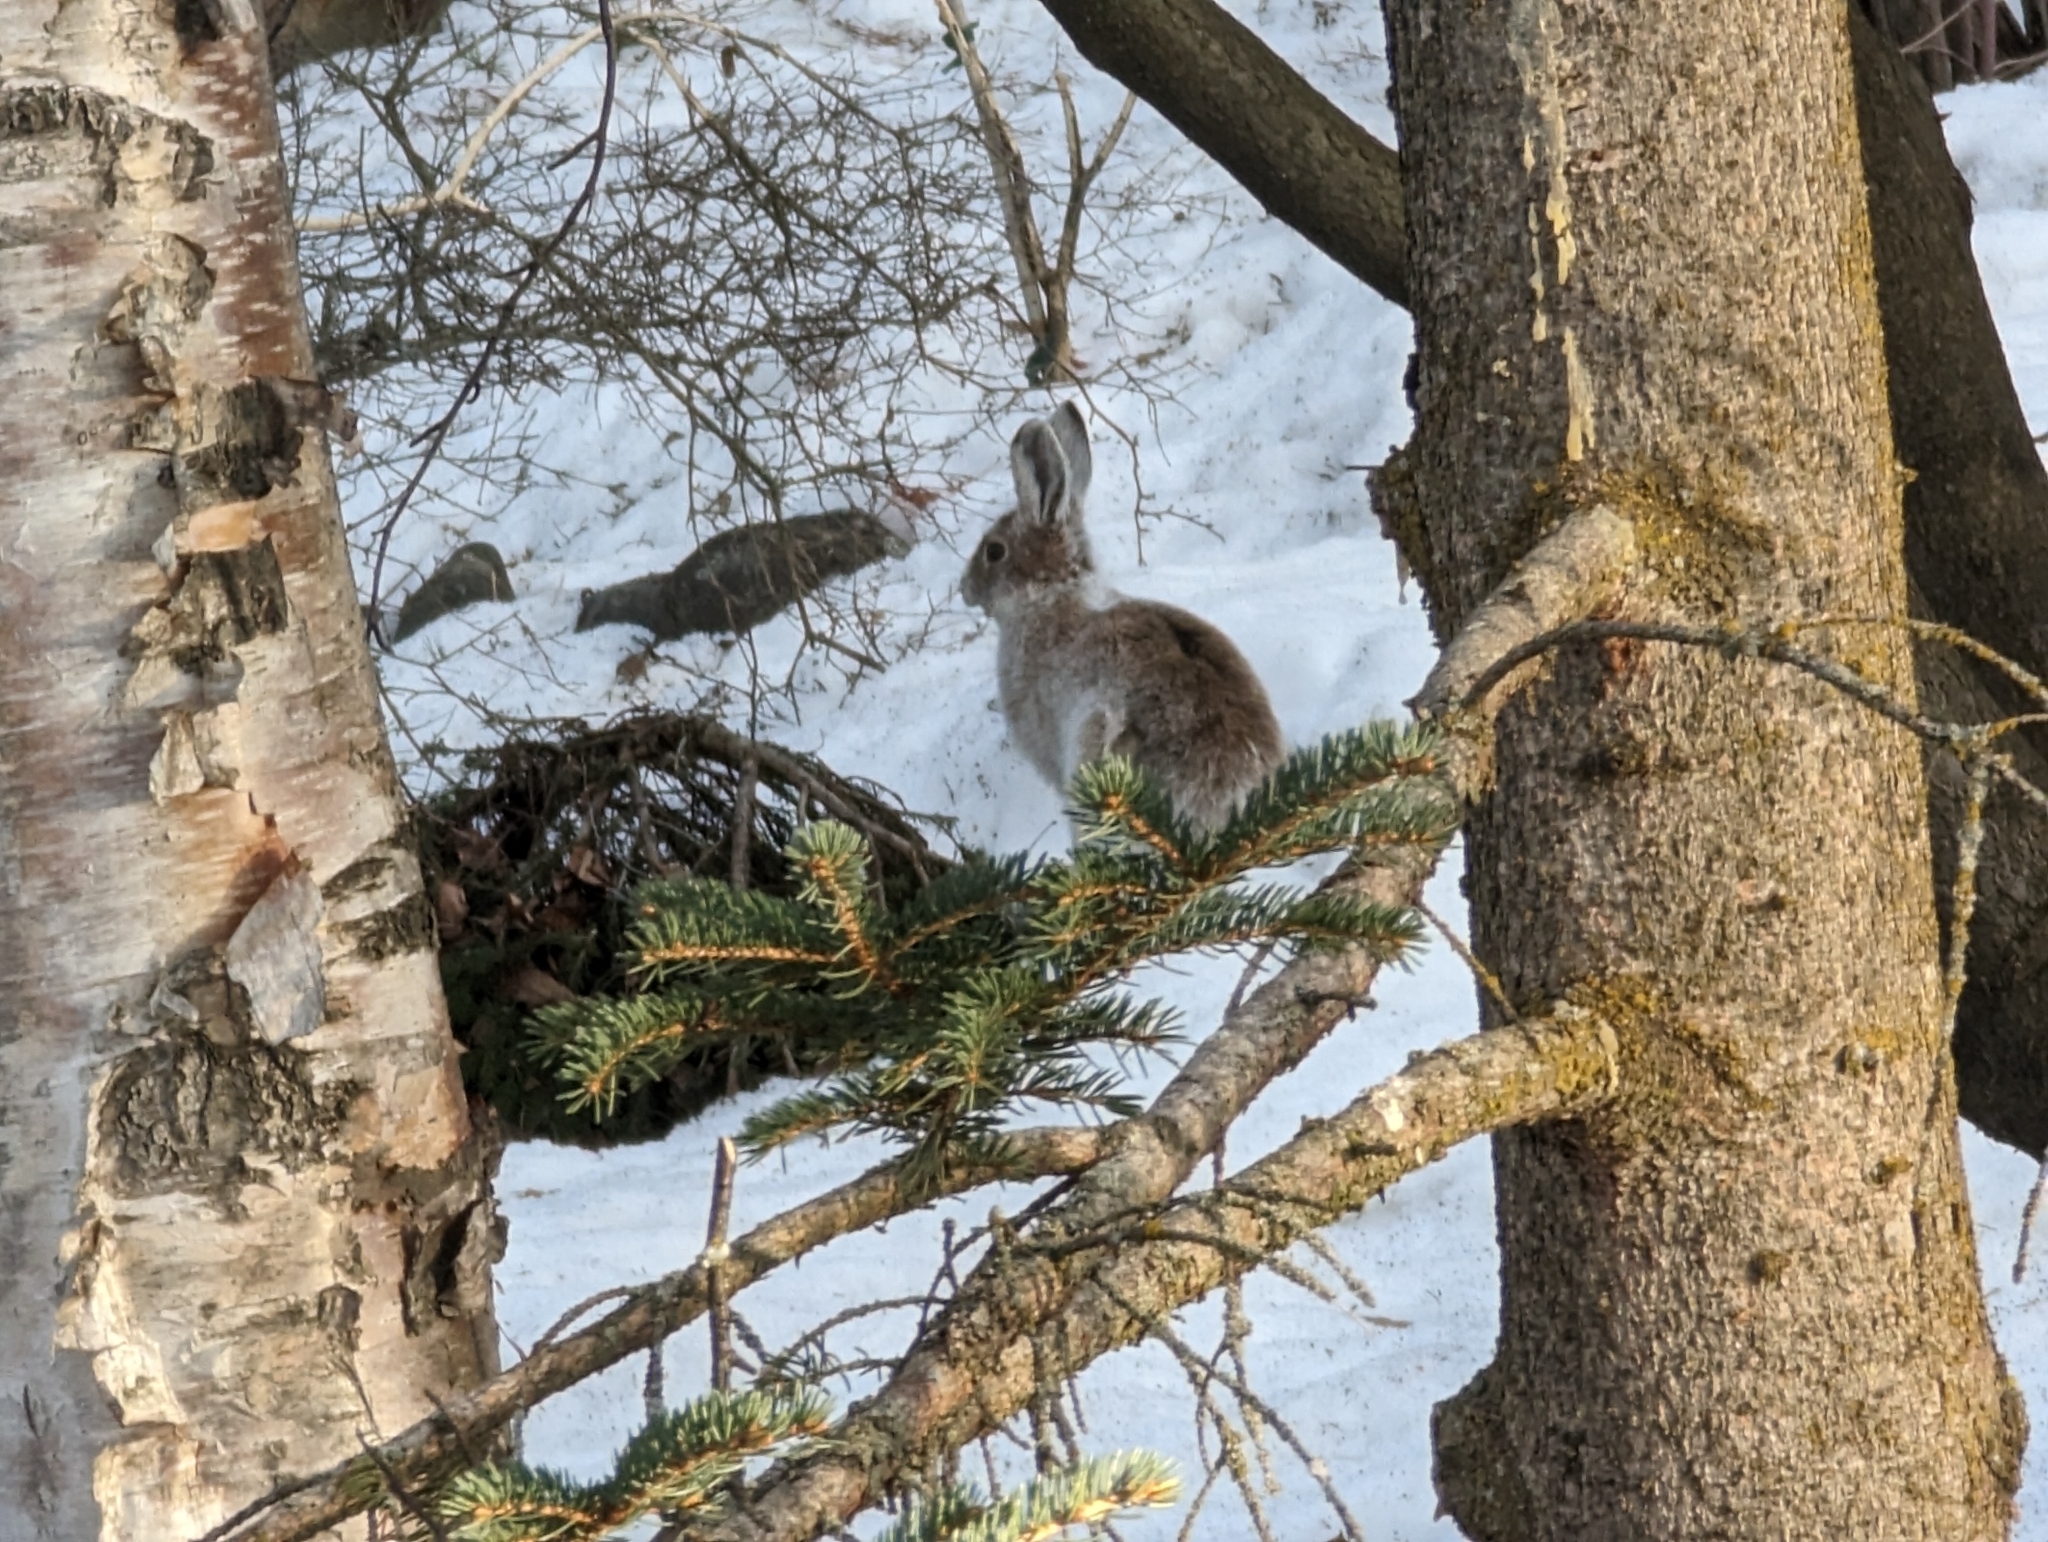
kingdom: Animalia
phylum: Chordata
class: Mammalia
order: Lagomorpha
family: Leporidae
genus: Lepus
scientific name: Lepus americanus
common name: Snowshoe hare
